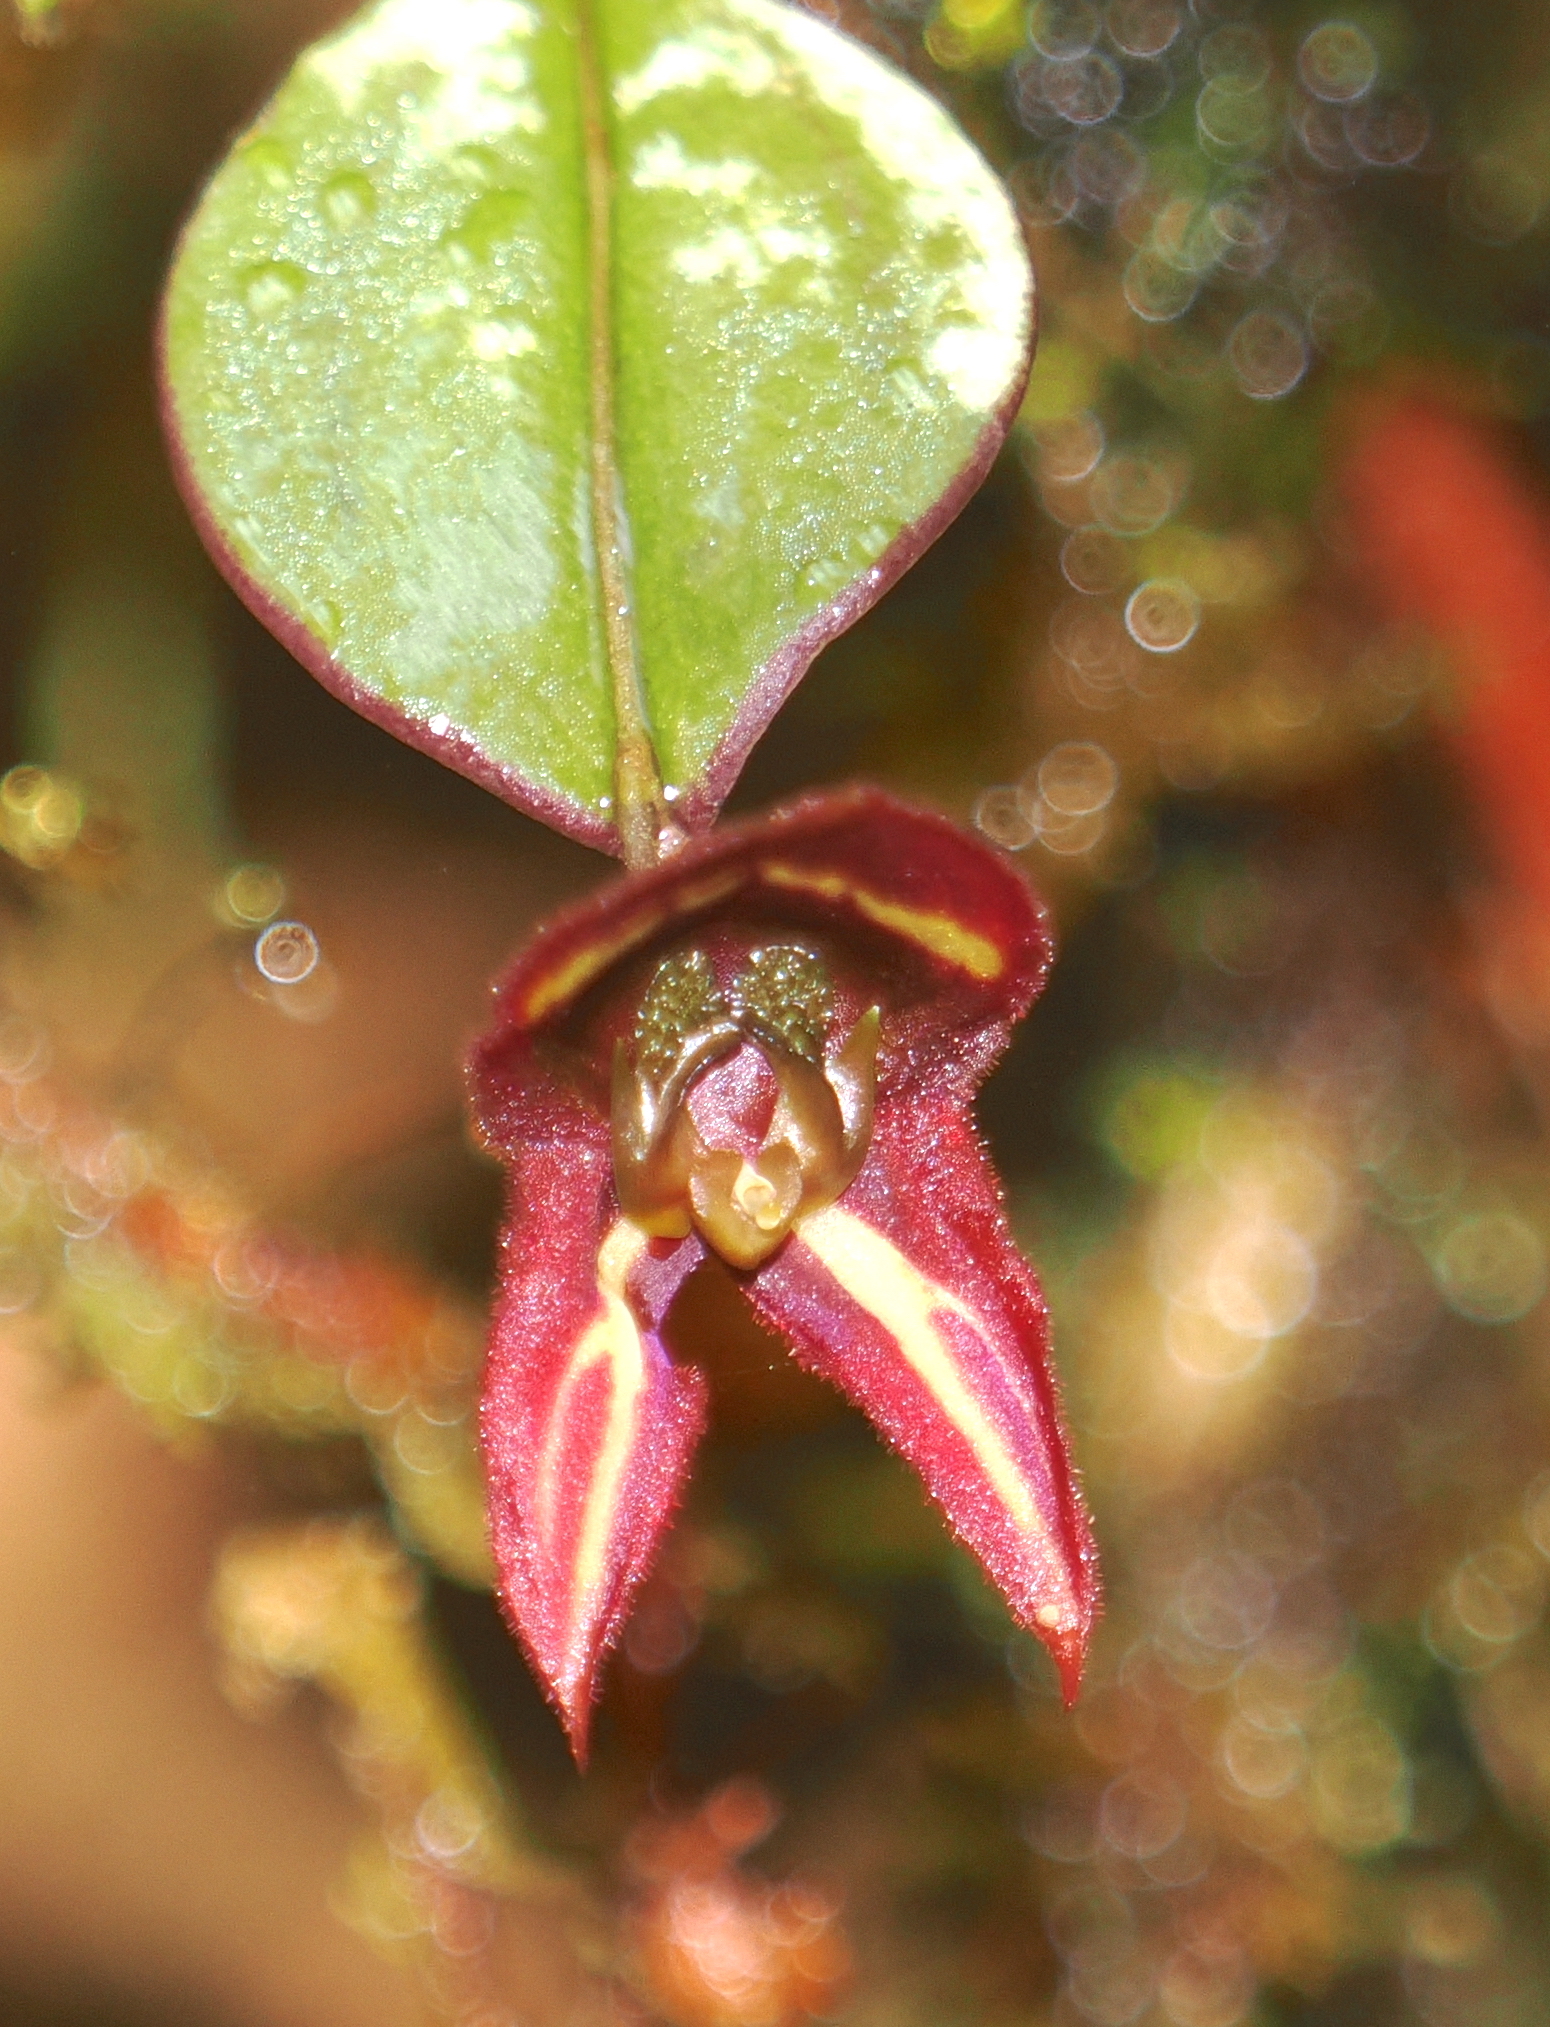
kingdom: Plantae
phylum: Tracheophyta
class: Liliopsida
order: Asparagales
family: Orchidaceae
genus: Lepanthes
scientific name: Lepanthes carunculigera
